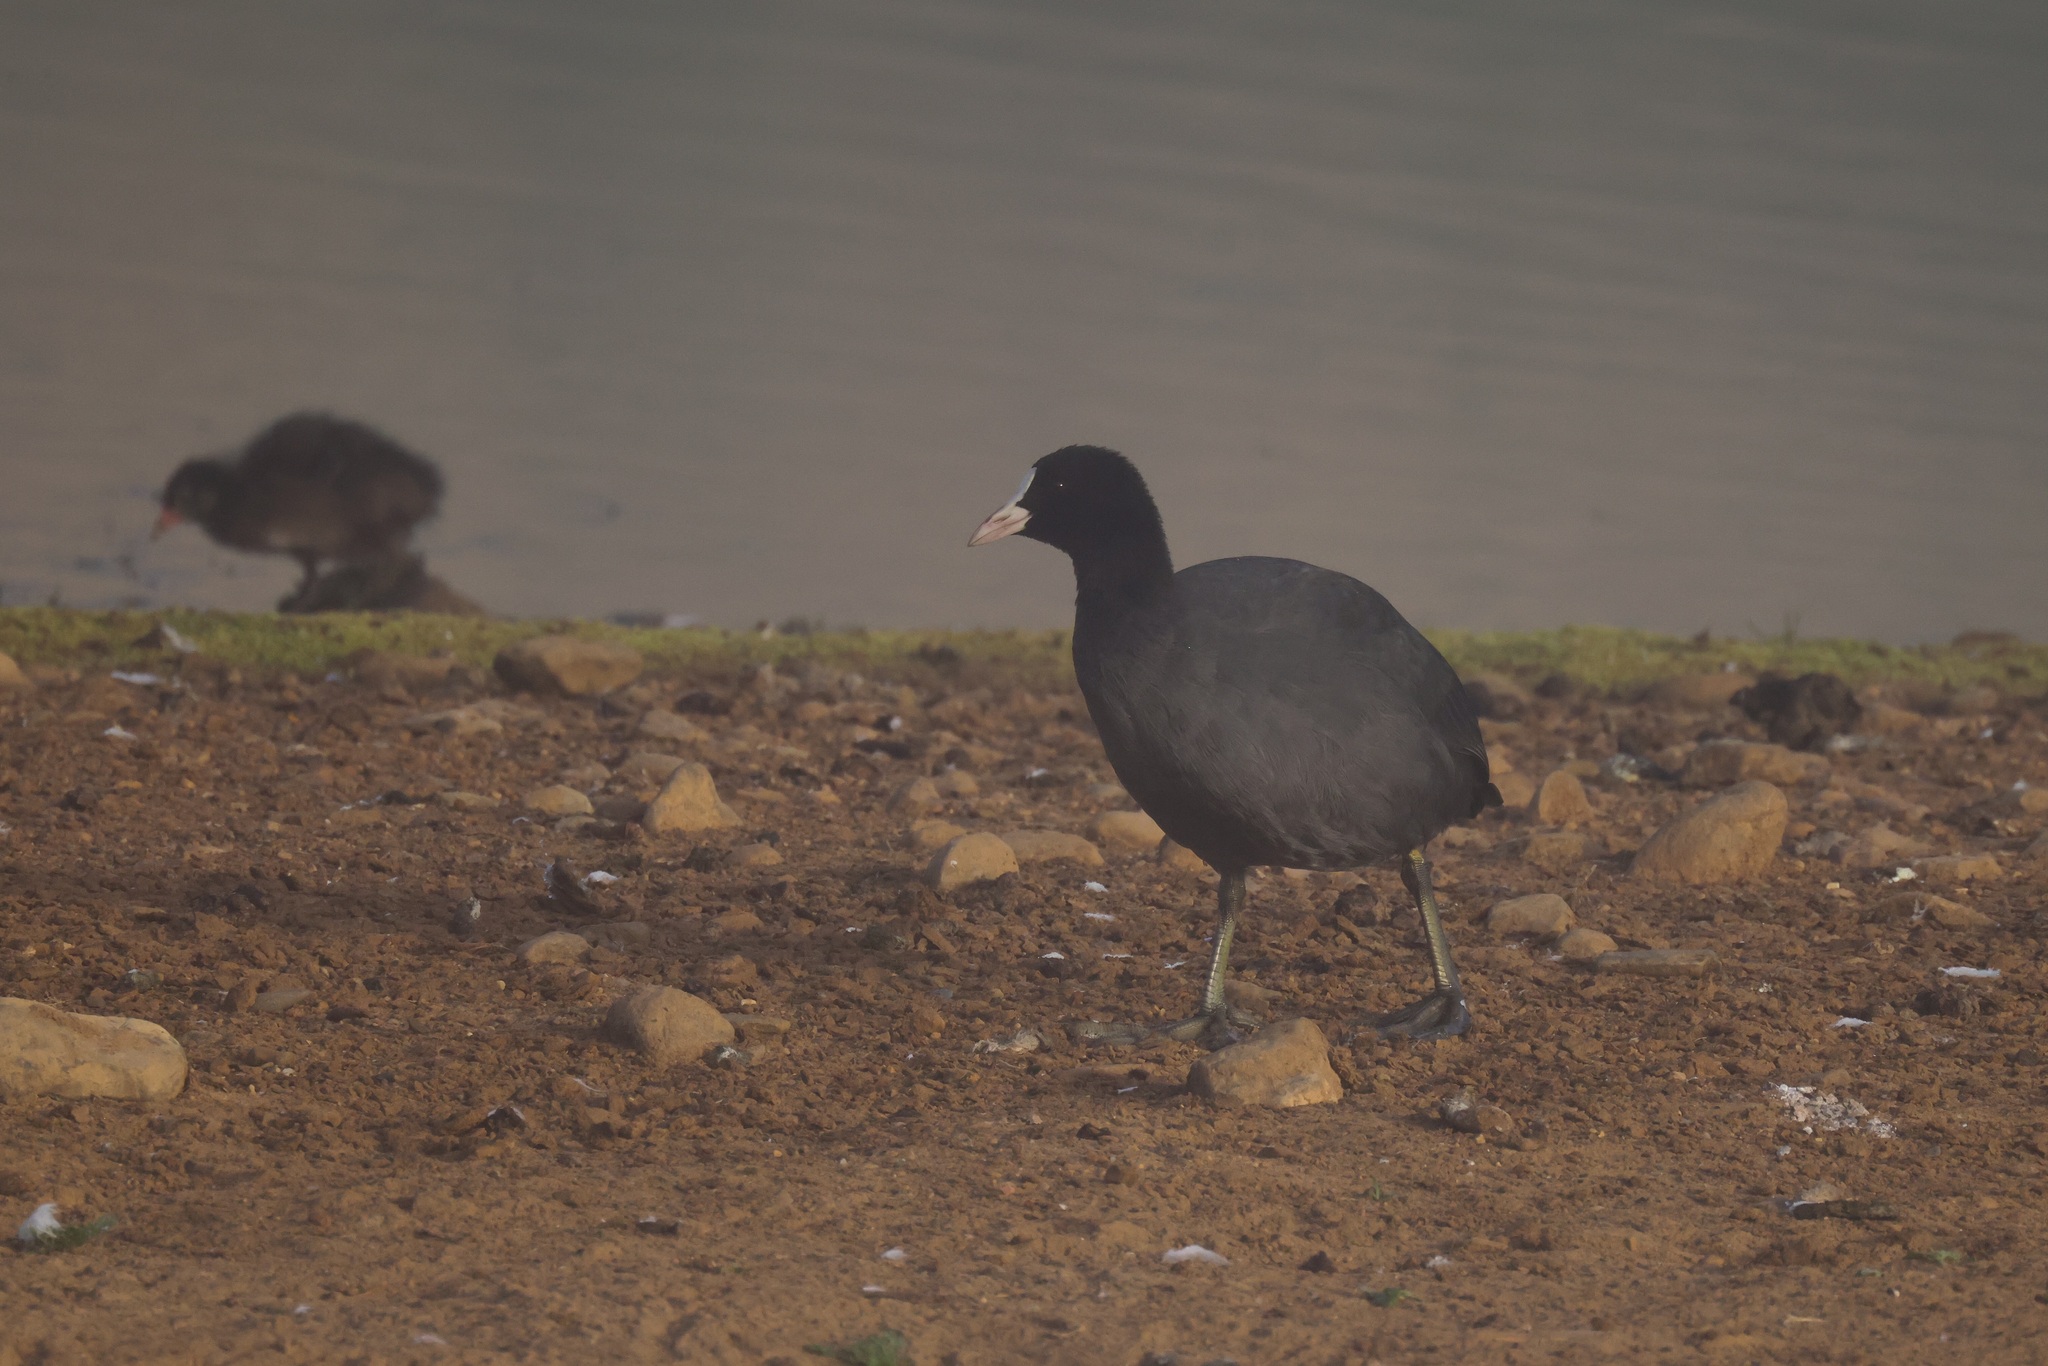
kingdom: Animalia
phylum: Chordata
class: Aves
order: Gruiformes
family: Rallidae
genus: Fulica
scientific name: Fulica atra
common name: Eurasian coot
